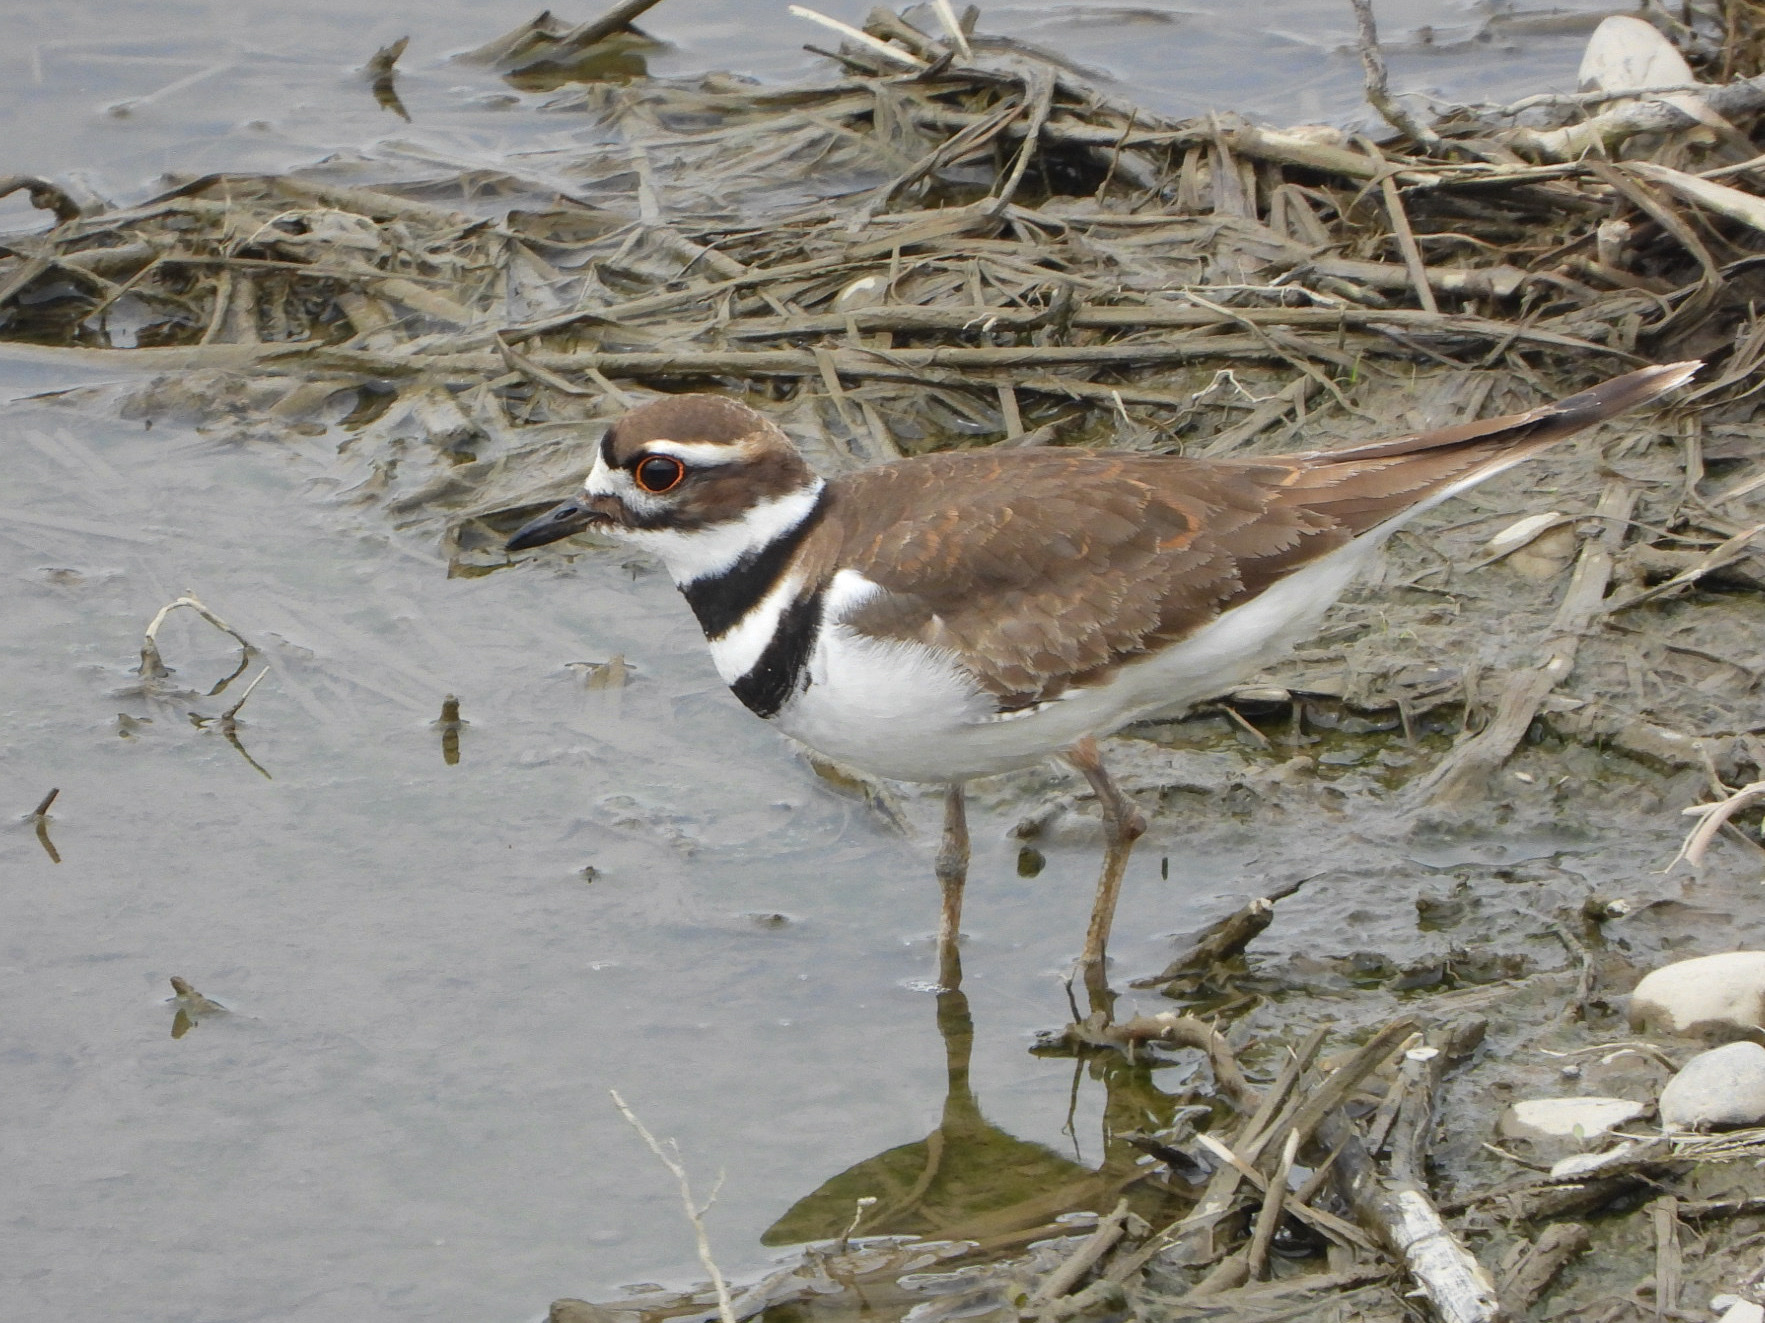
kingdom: Animalia
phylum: Chordata
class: Aves
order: Charadriiformes
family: Charadriidae
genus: Charadrius
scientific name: Charadrius vociferus
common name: Killdeer
